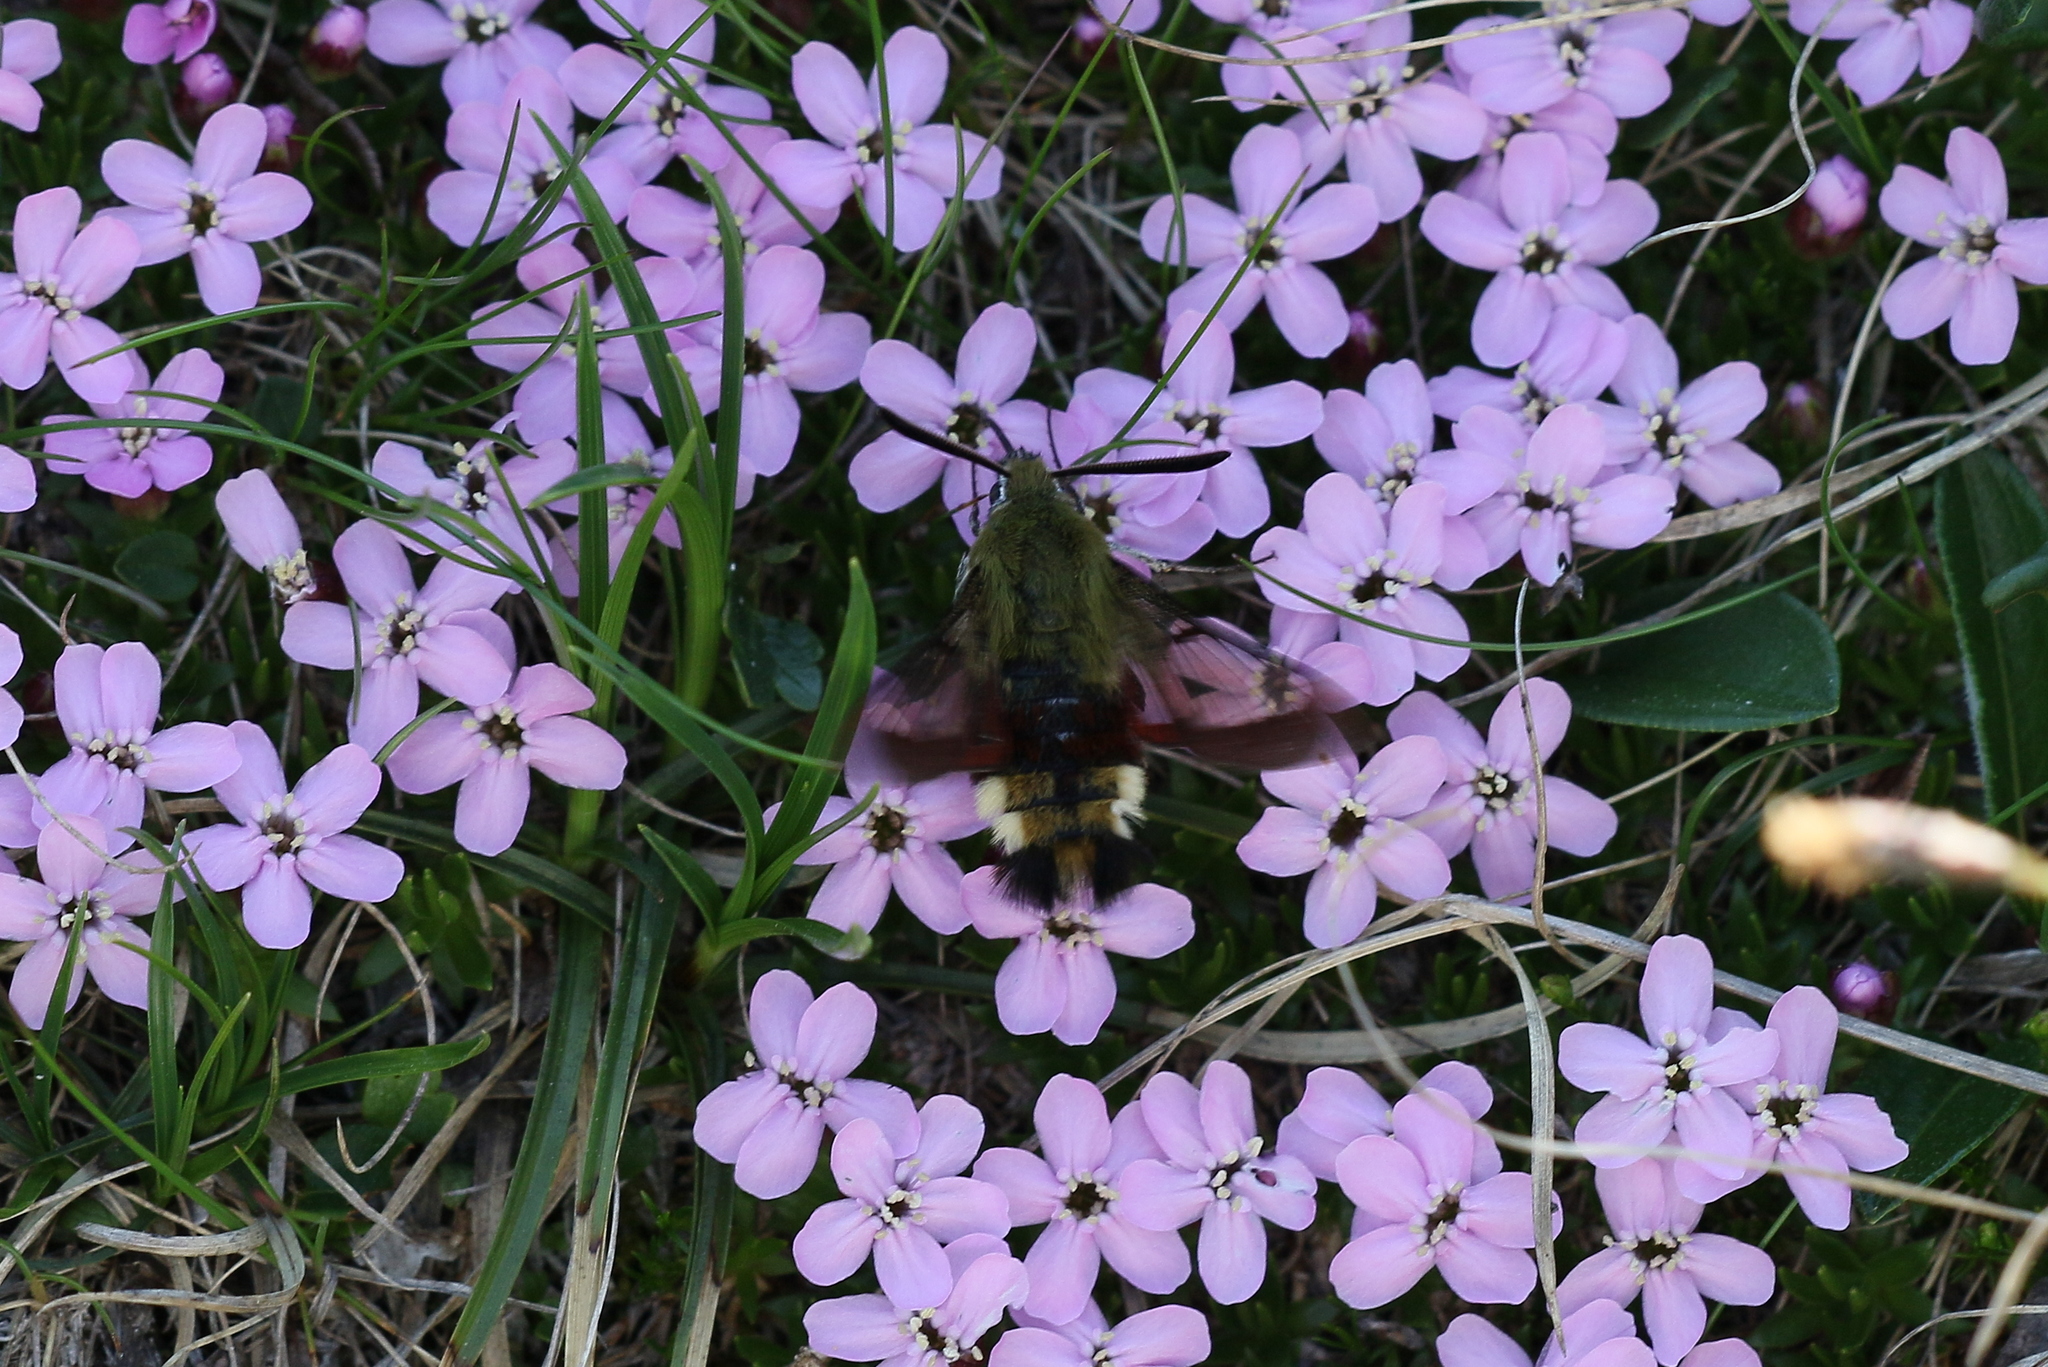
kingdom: Animalia
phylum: Arthropoda
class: Insecta
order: Lepidoptera
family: Sphingidae
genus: Hemaris
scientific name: Hemaris fuciformis
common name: Broad-bordered bee hawk-moth
